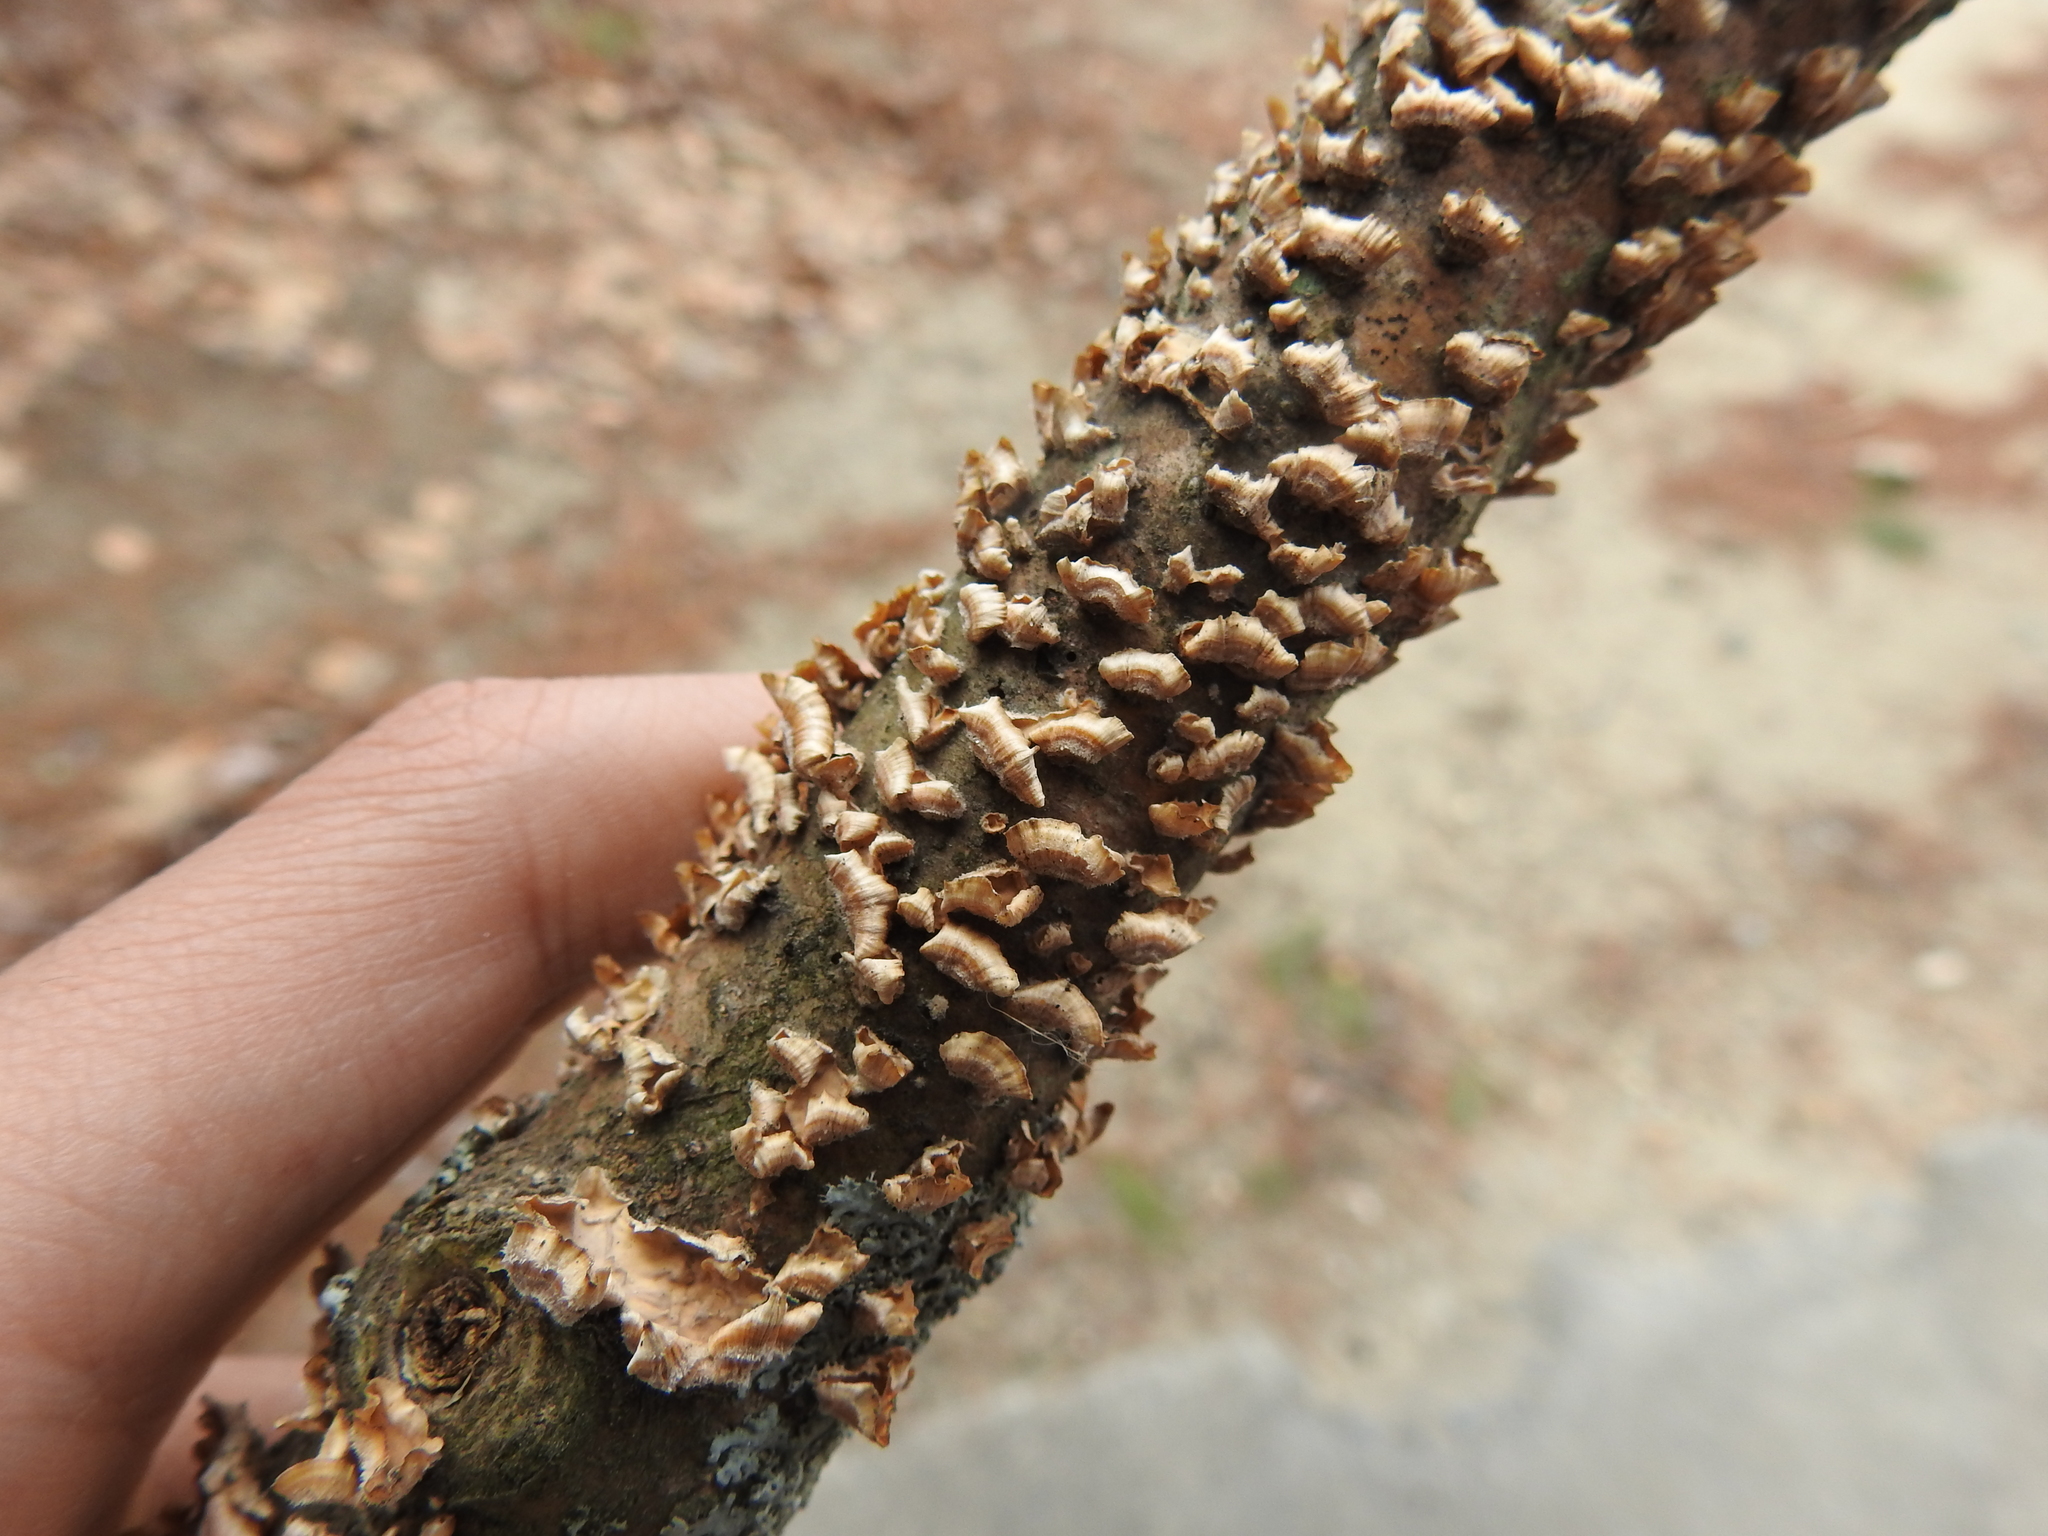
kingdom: Fungi
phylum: Basidiomycota
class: Agaricomycetes
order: Russulales
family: Stereaceae
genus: Stereum
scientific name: Stereum complicatum
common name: Crowded parchment
